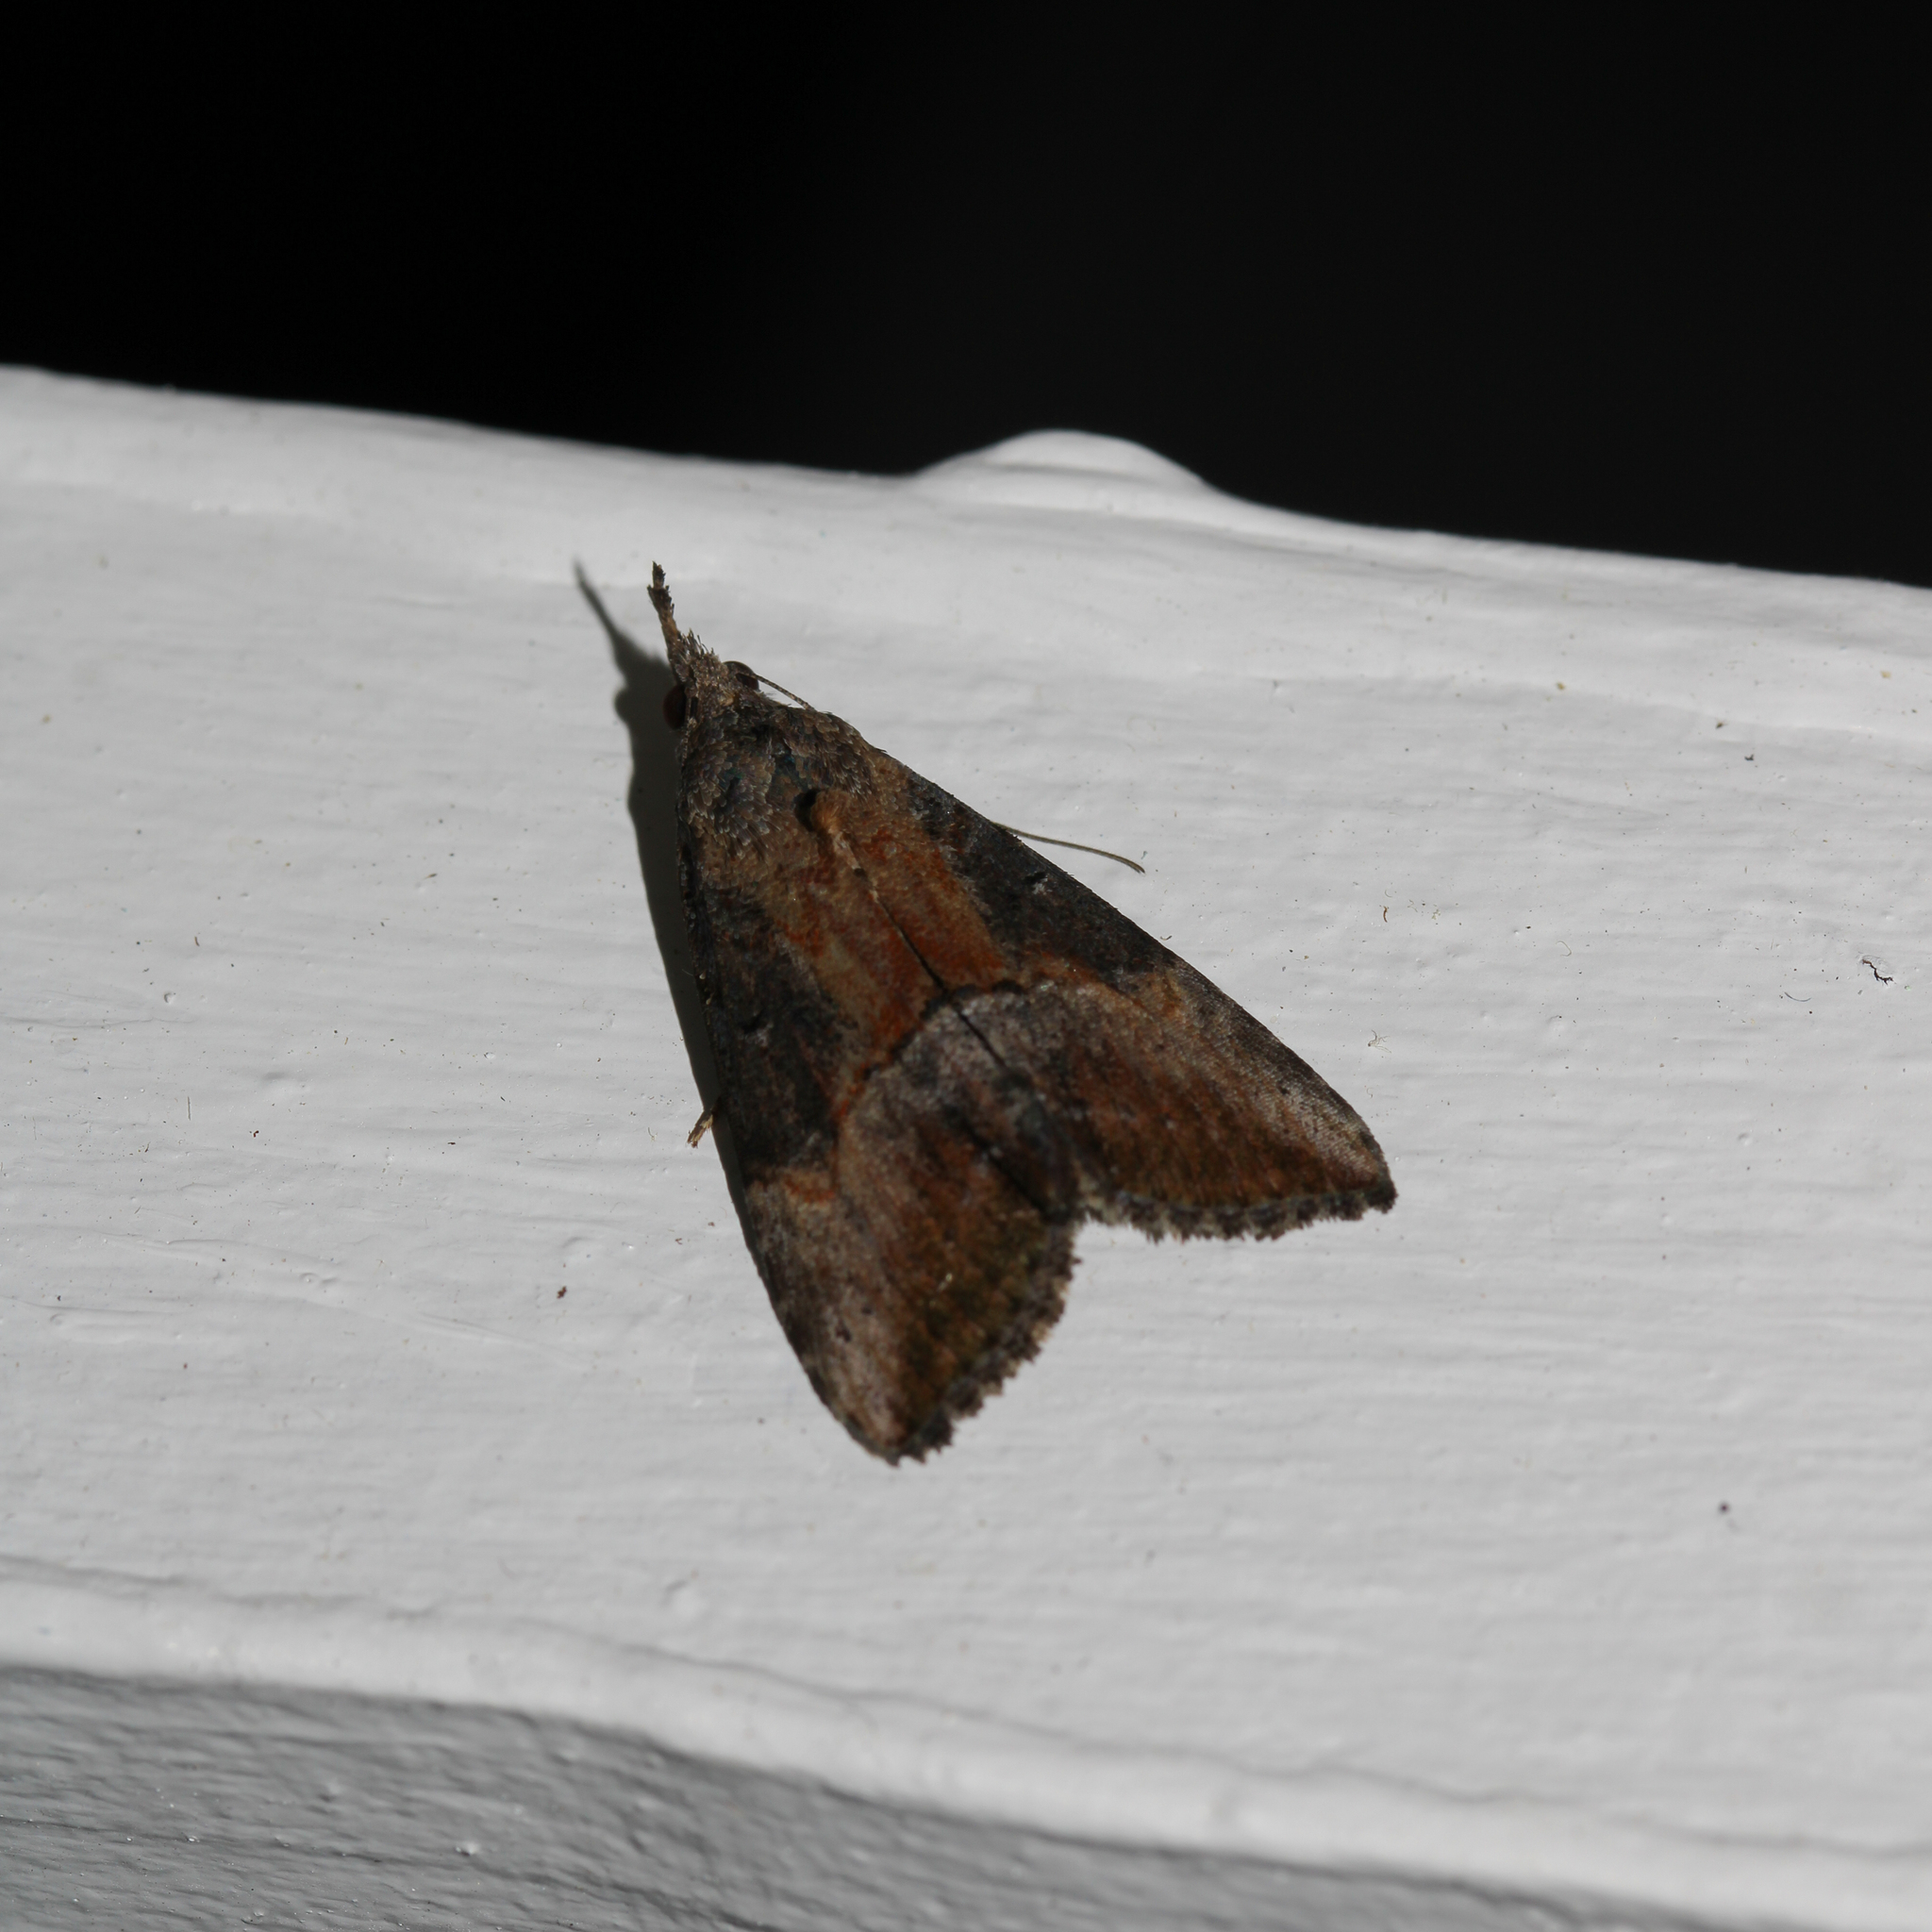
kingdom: Animalia
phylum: Arthropoda
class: Insecta
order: Lepidoptera
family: Erebidae
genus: Hypena
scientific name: Hypena scabra
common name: Green cloverworm
